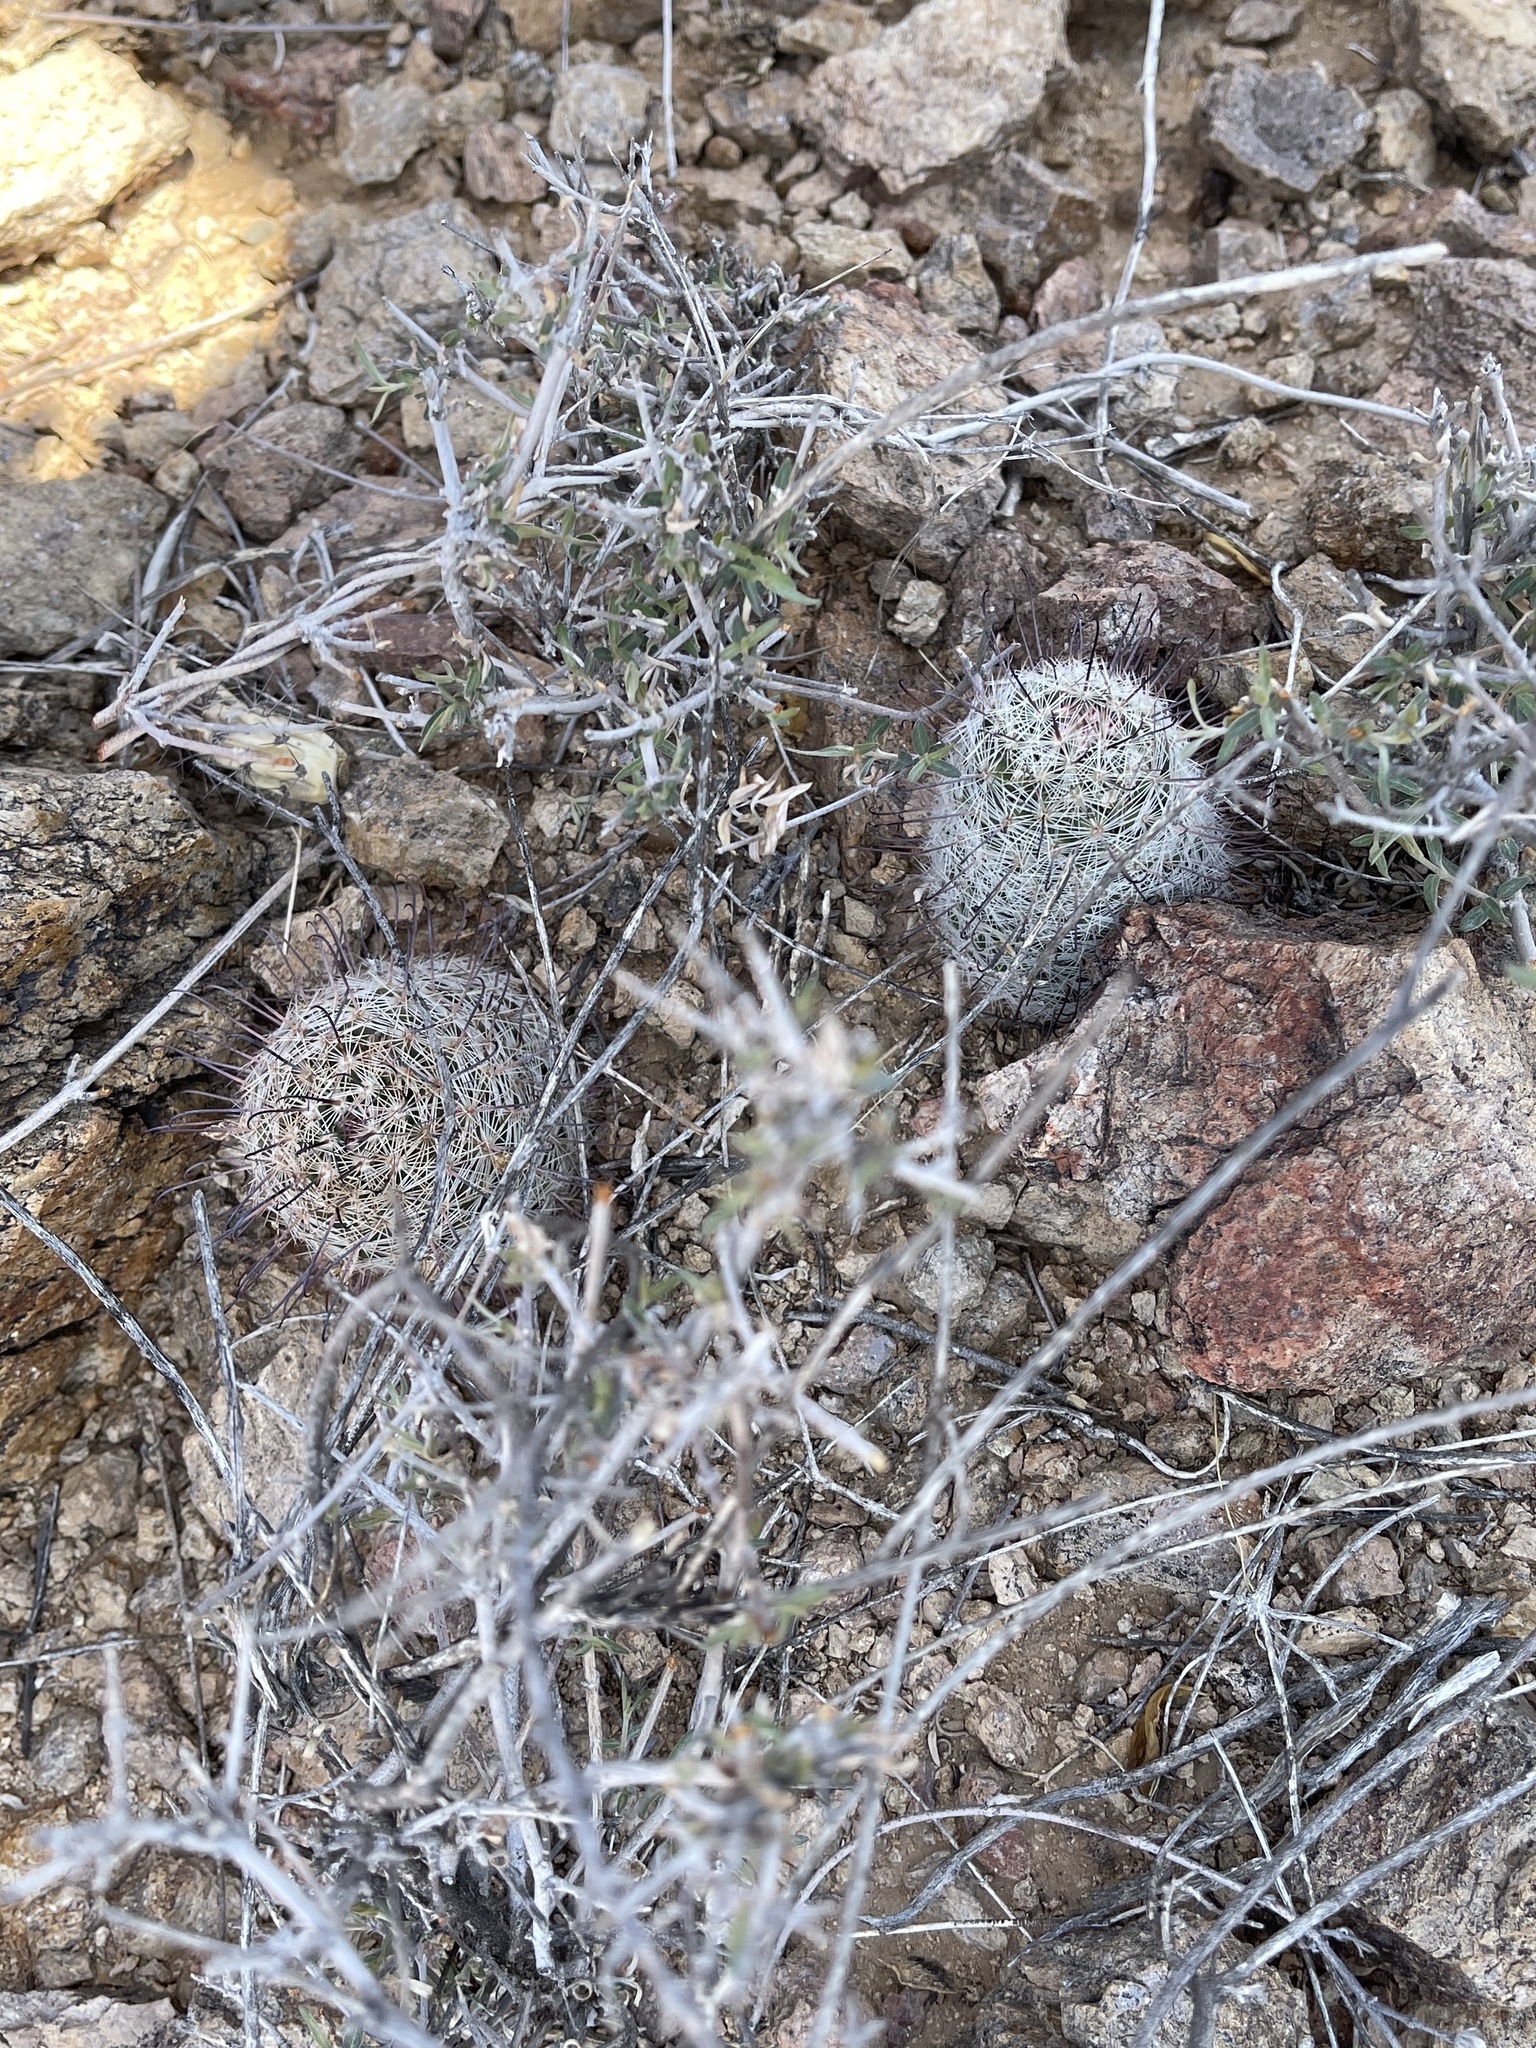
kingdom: Plantae
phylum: Tracheophyta
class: Magnoliopsida
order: Caryophyllales
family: Cactaceae
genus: Cochemiea
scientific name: Cochemiea grahamii
